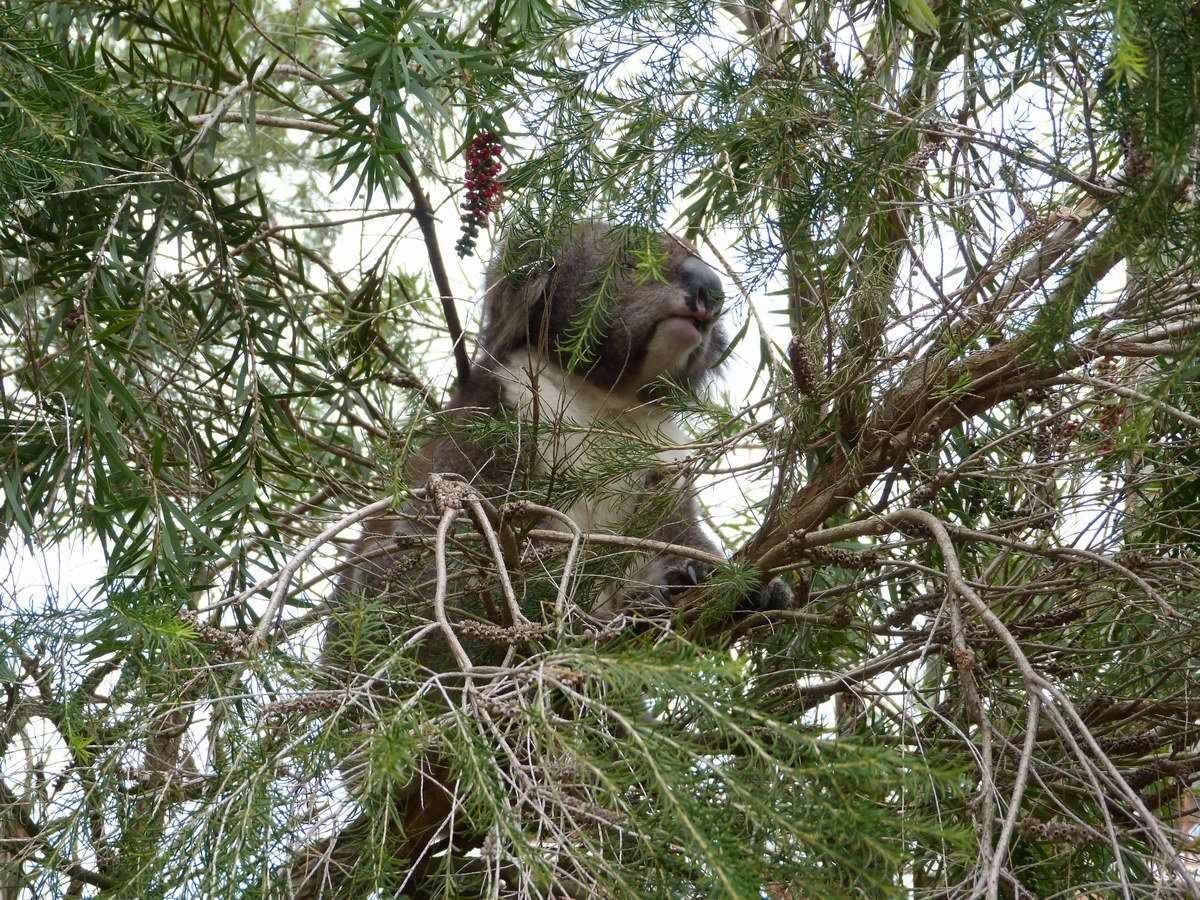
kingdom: Animalia
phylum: Chordata
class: Mammalia
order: Diprotodontia
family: Phascolarctidae
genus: Phascolarctos
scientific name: Phascolarctos cinereus
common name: Koala
